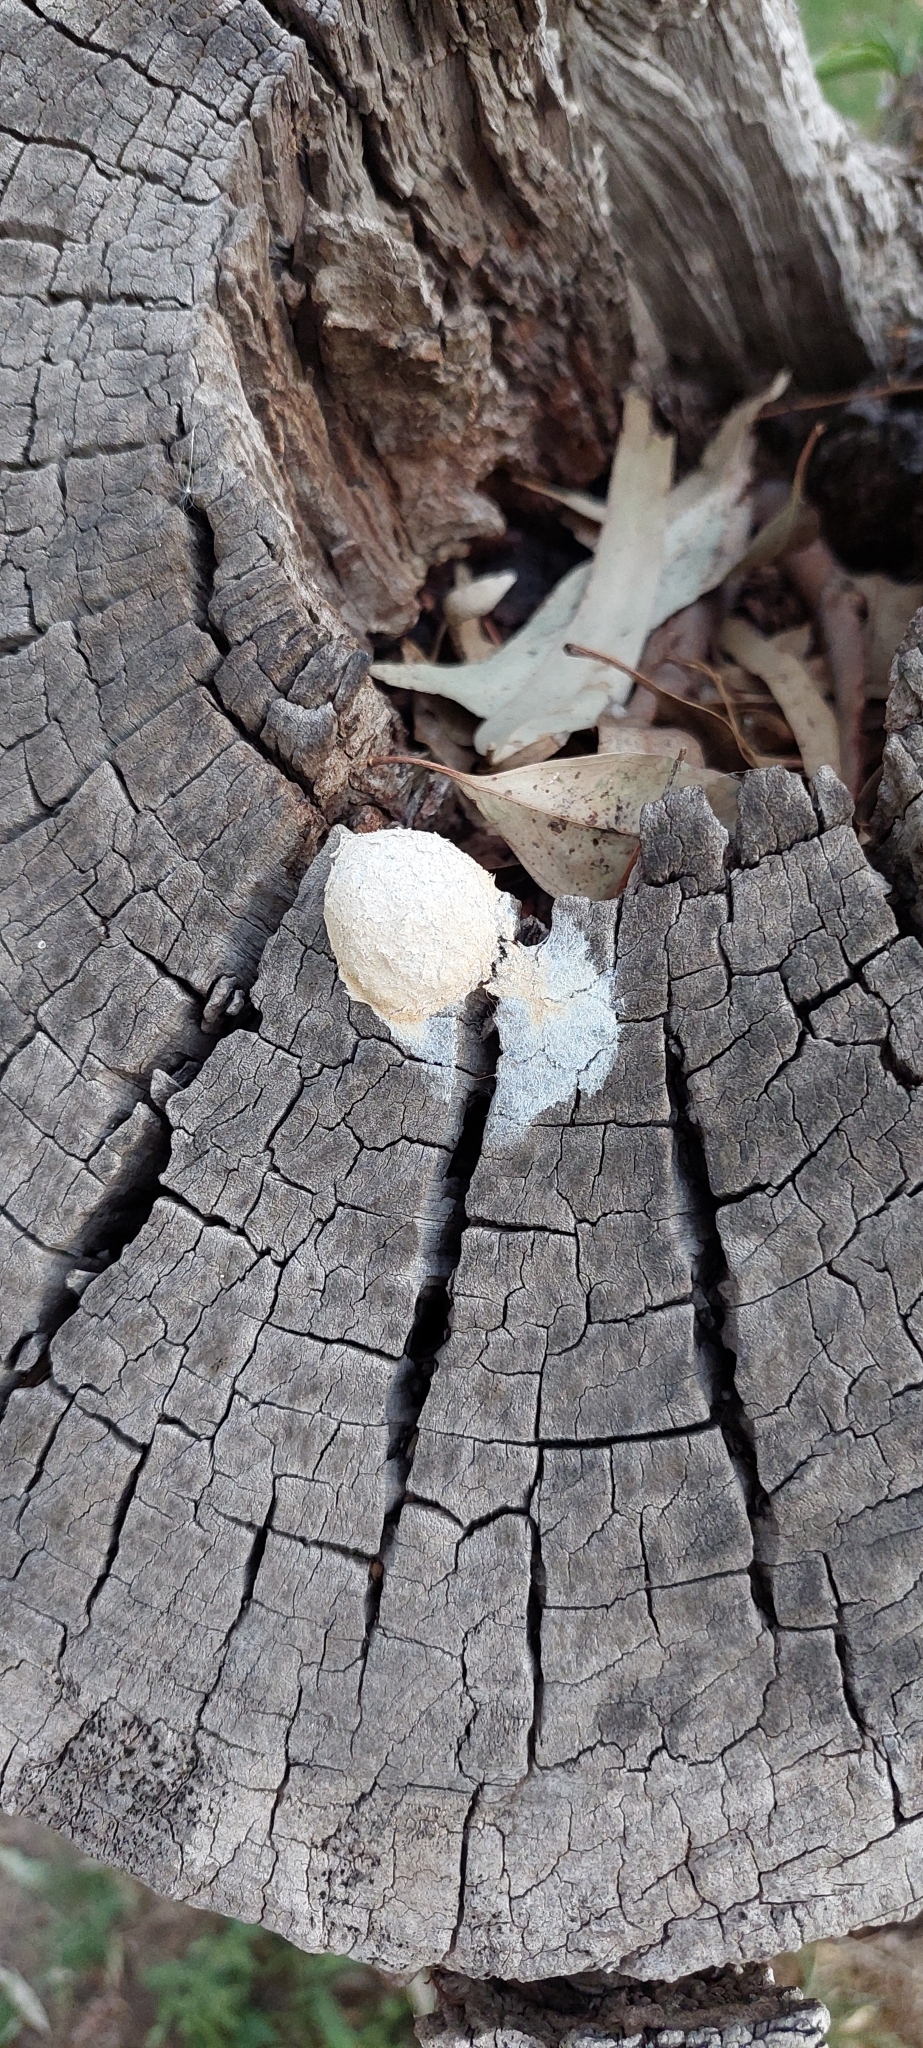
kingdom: Protozoa
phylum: Mycetozoa
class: Myxomycetes
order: Physarales
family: Physaraceae
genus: Fuligo
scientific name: Fuligo septica
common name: Dog vomit slime mold
